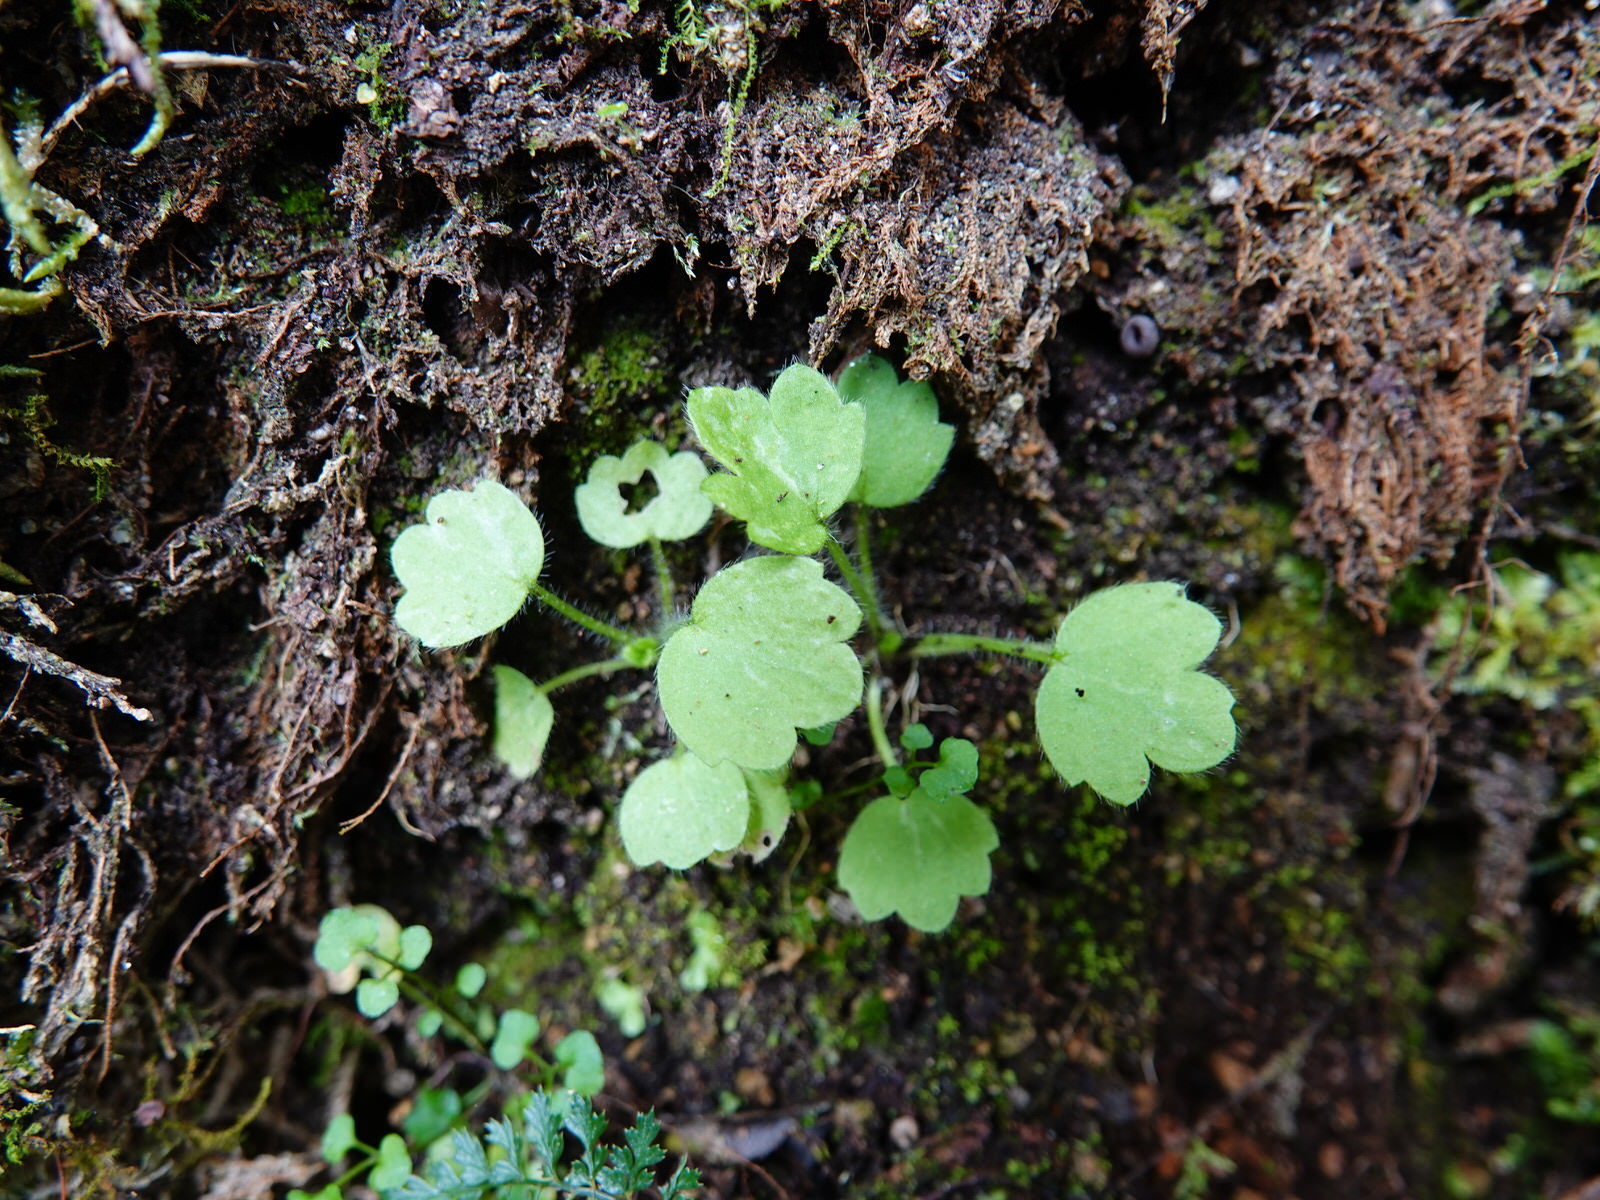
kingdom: Plantae
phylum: Tracheophyta
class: Magnoliopsida
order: Ranunculales
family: Ranunculaceae
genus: Ranunculus
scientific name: Ranunculus reflexus
